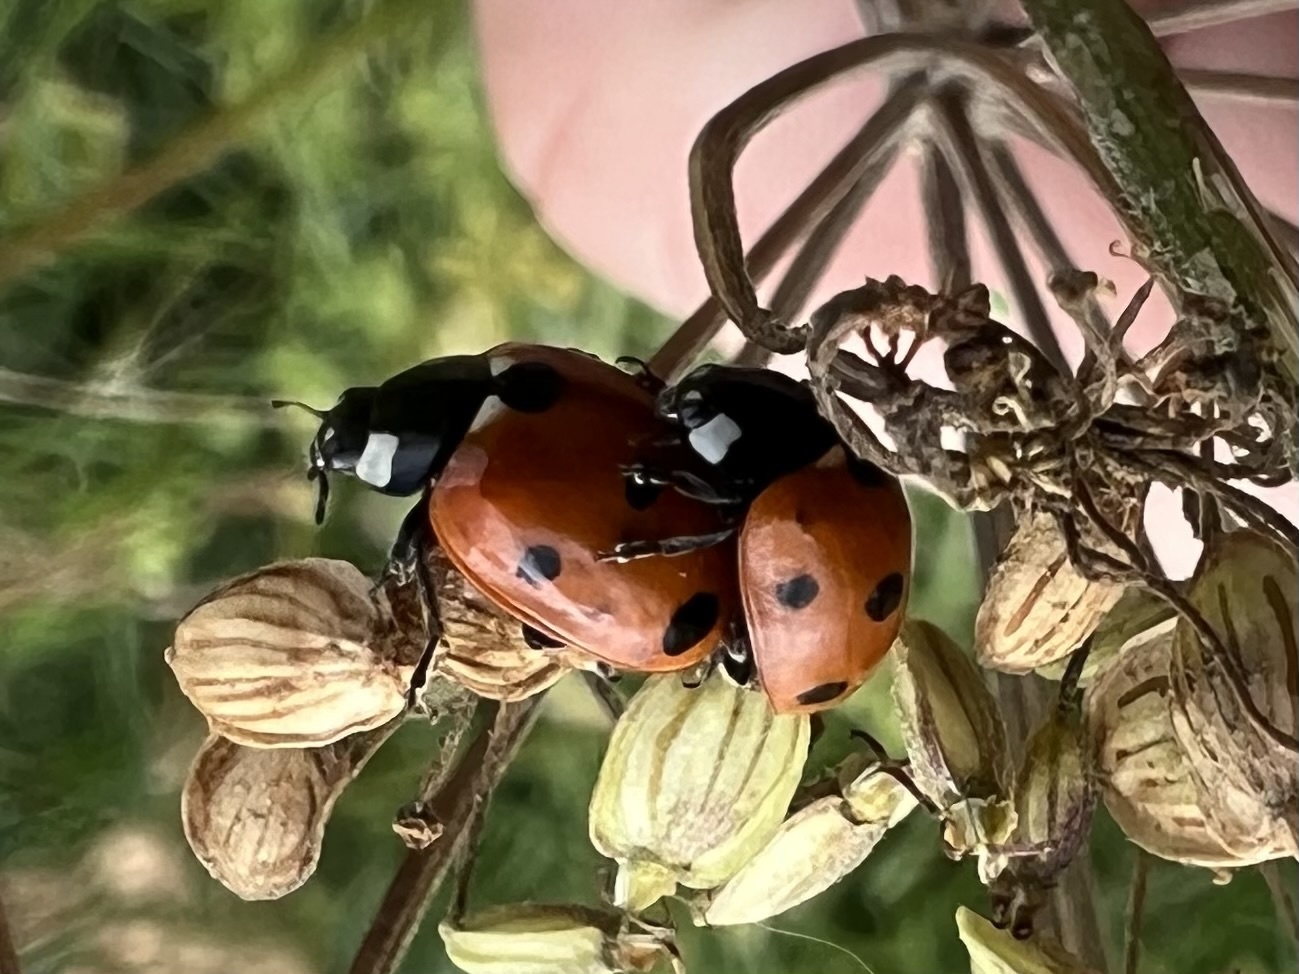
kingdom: Animalia
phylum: Arthropoda
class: Insecta
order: Coleoptera
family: Coccinellidae
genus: Coccinella
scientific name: Coccinella septempunctata
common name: Sevenspotted lady beetle
